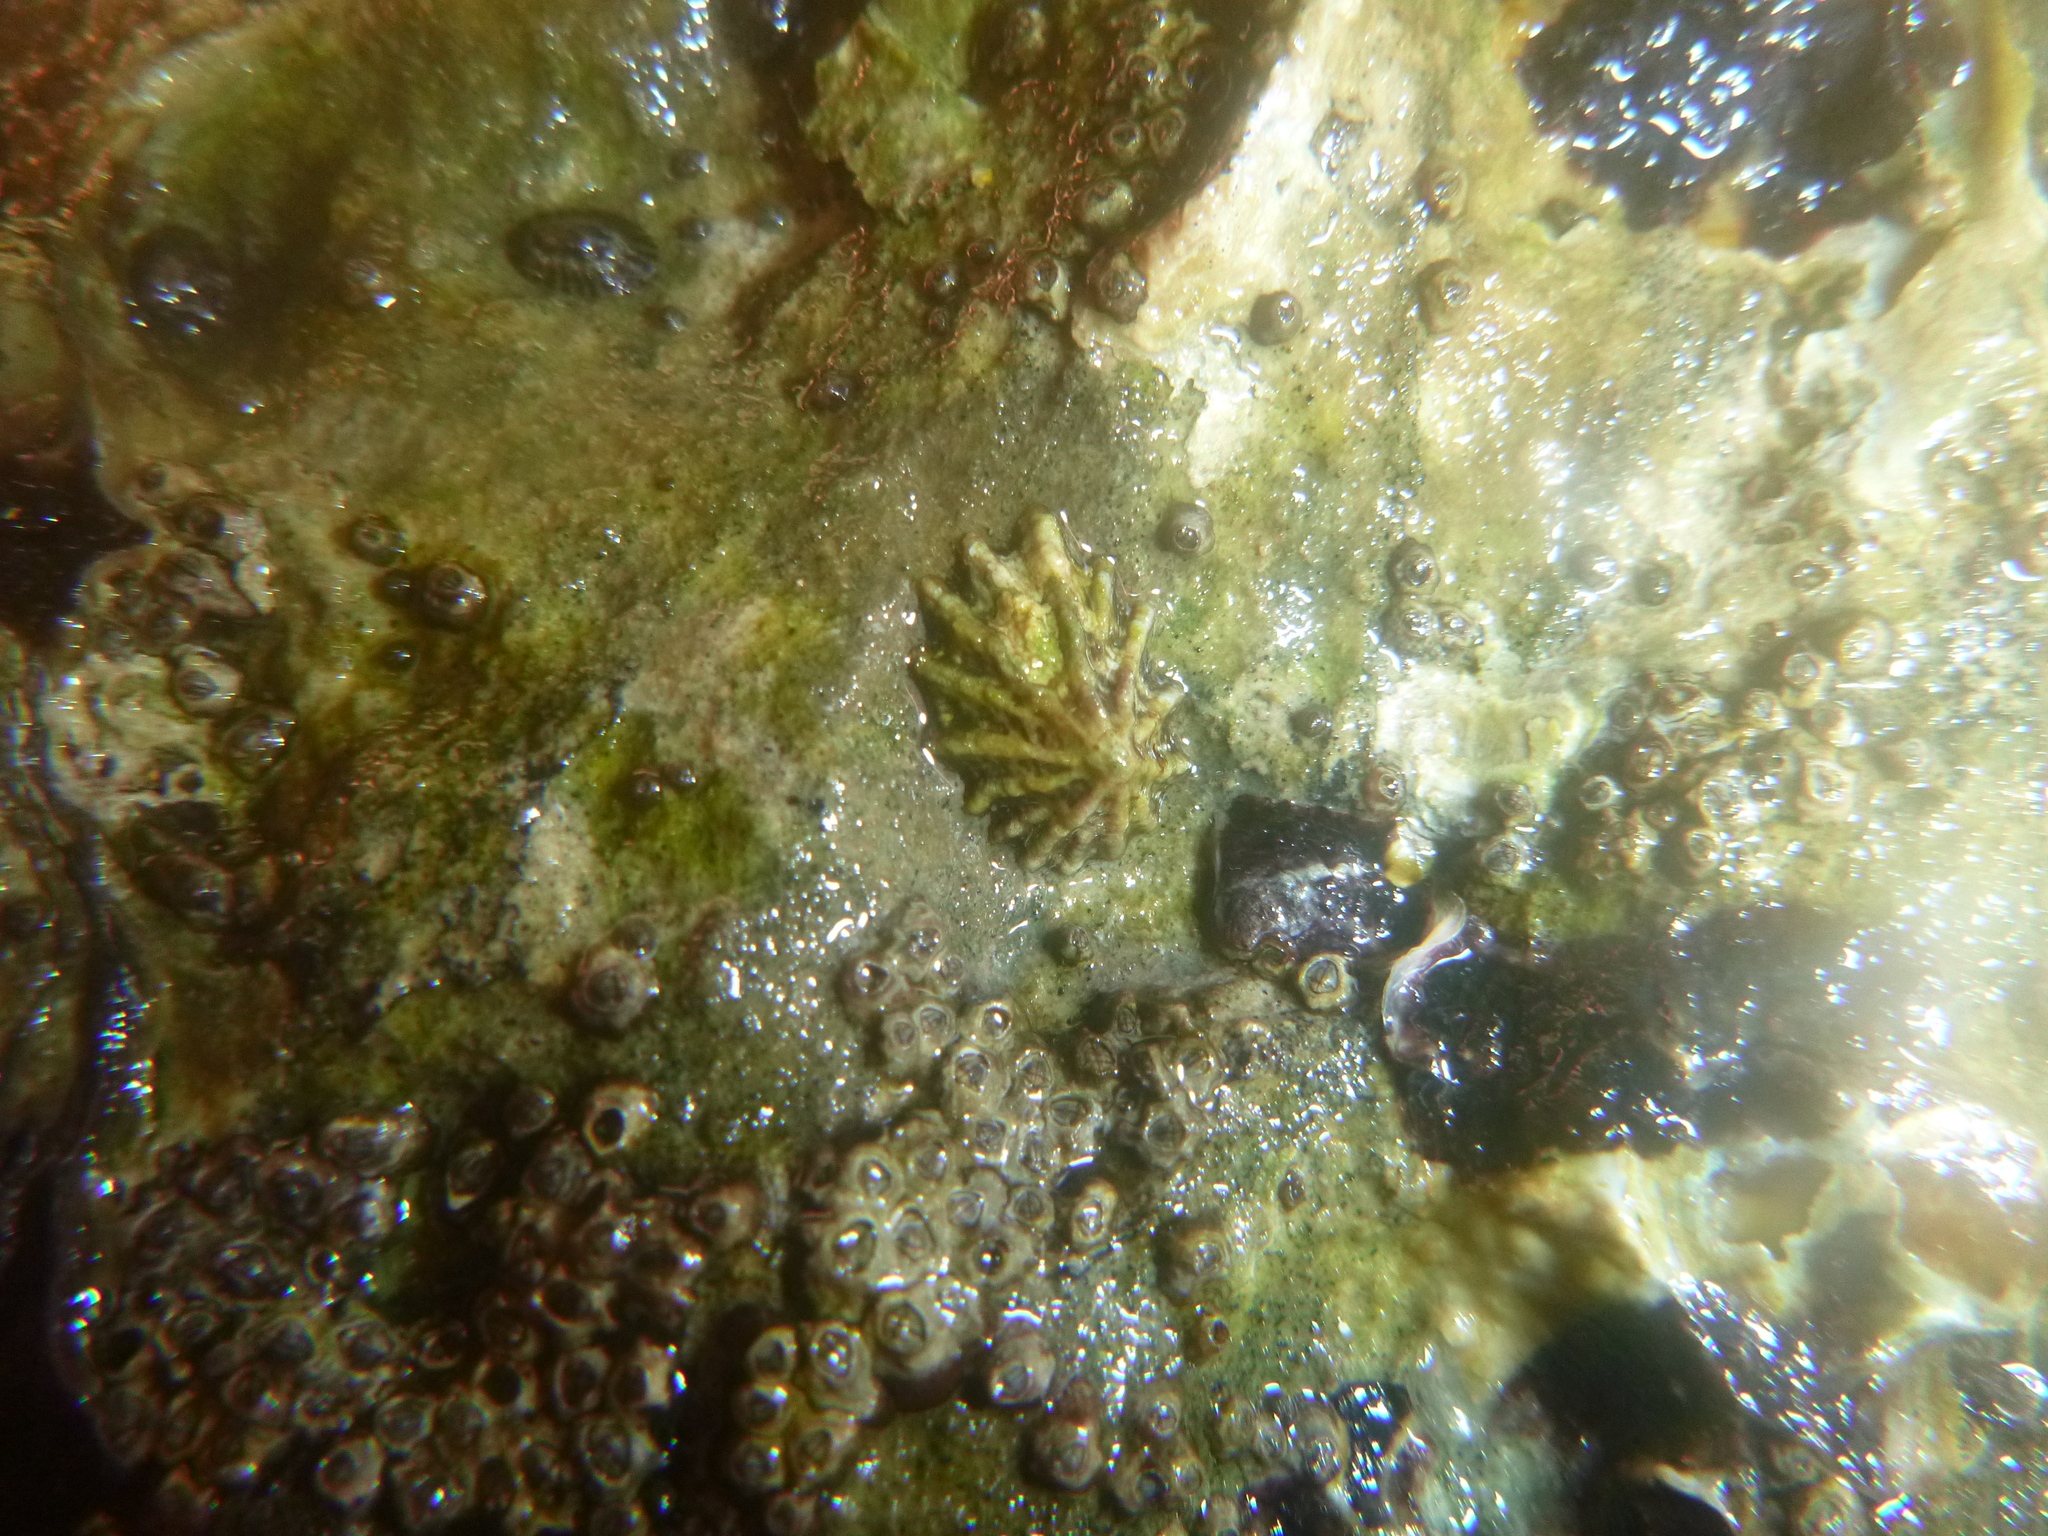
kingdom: Animalia
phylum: Mollusca
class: Gastropoda
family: Lottiidae
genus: Patelloida
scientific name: Patelloida corticata
